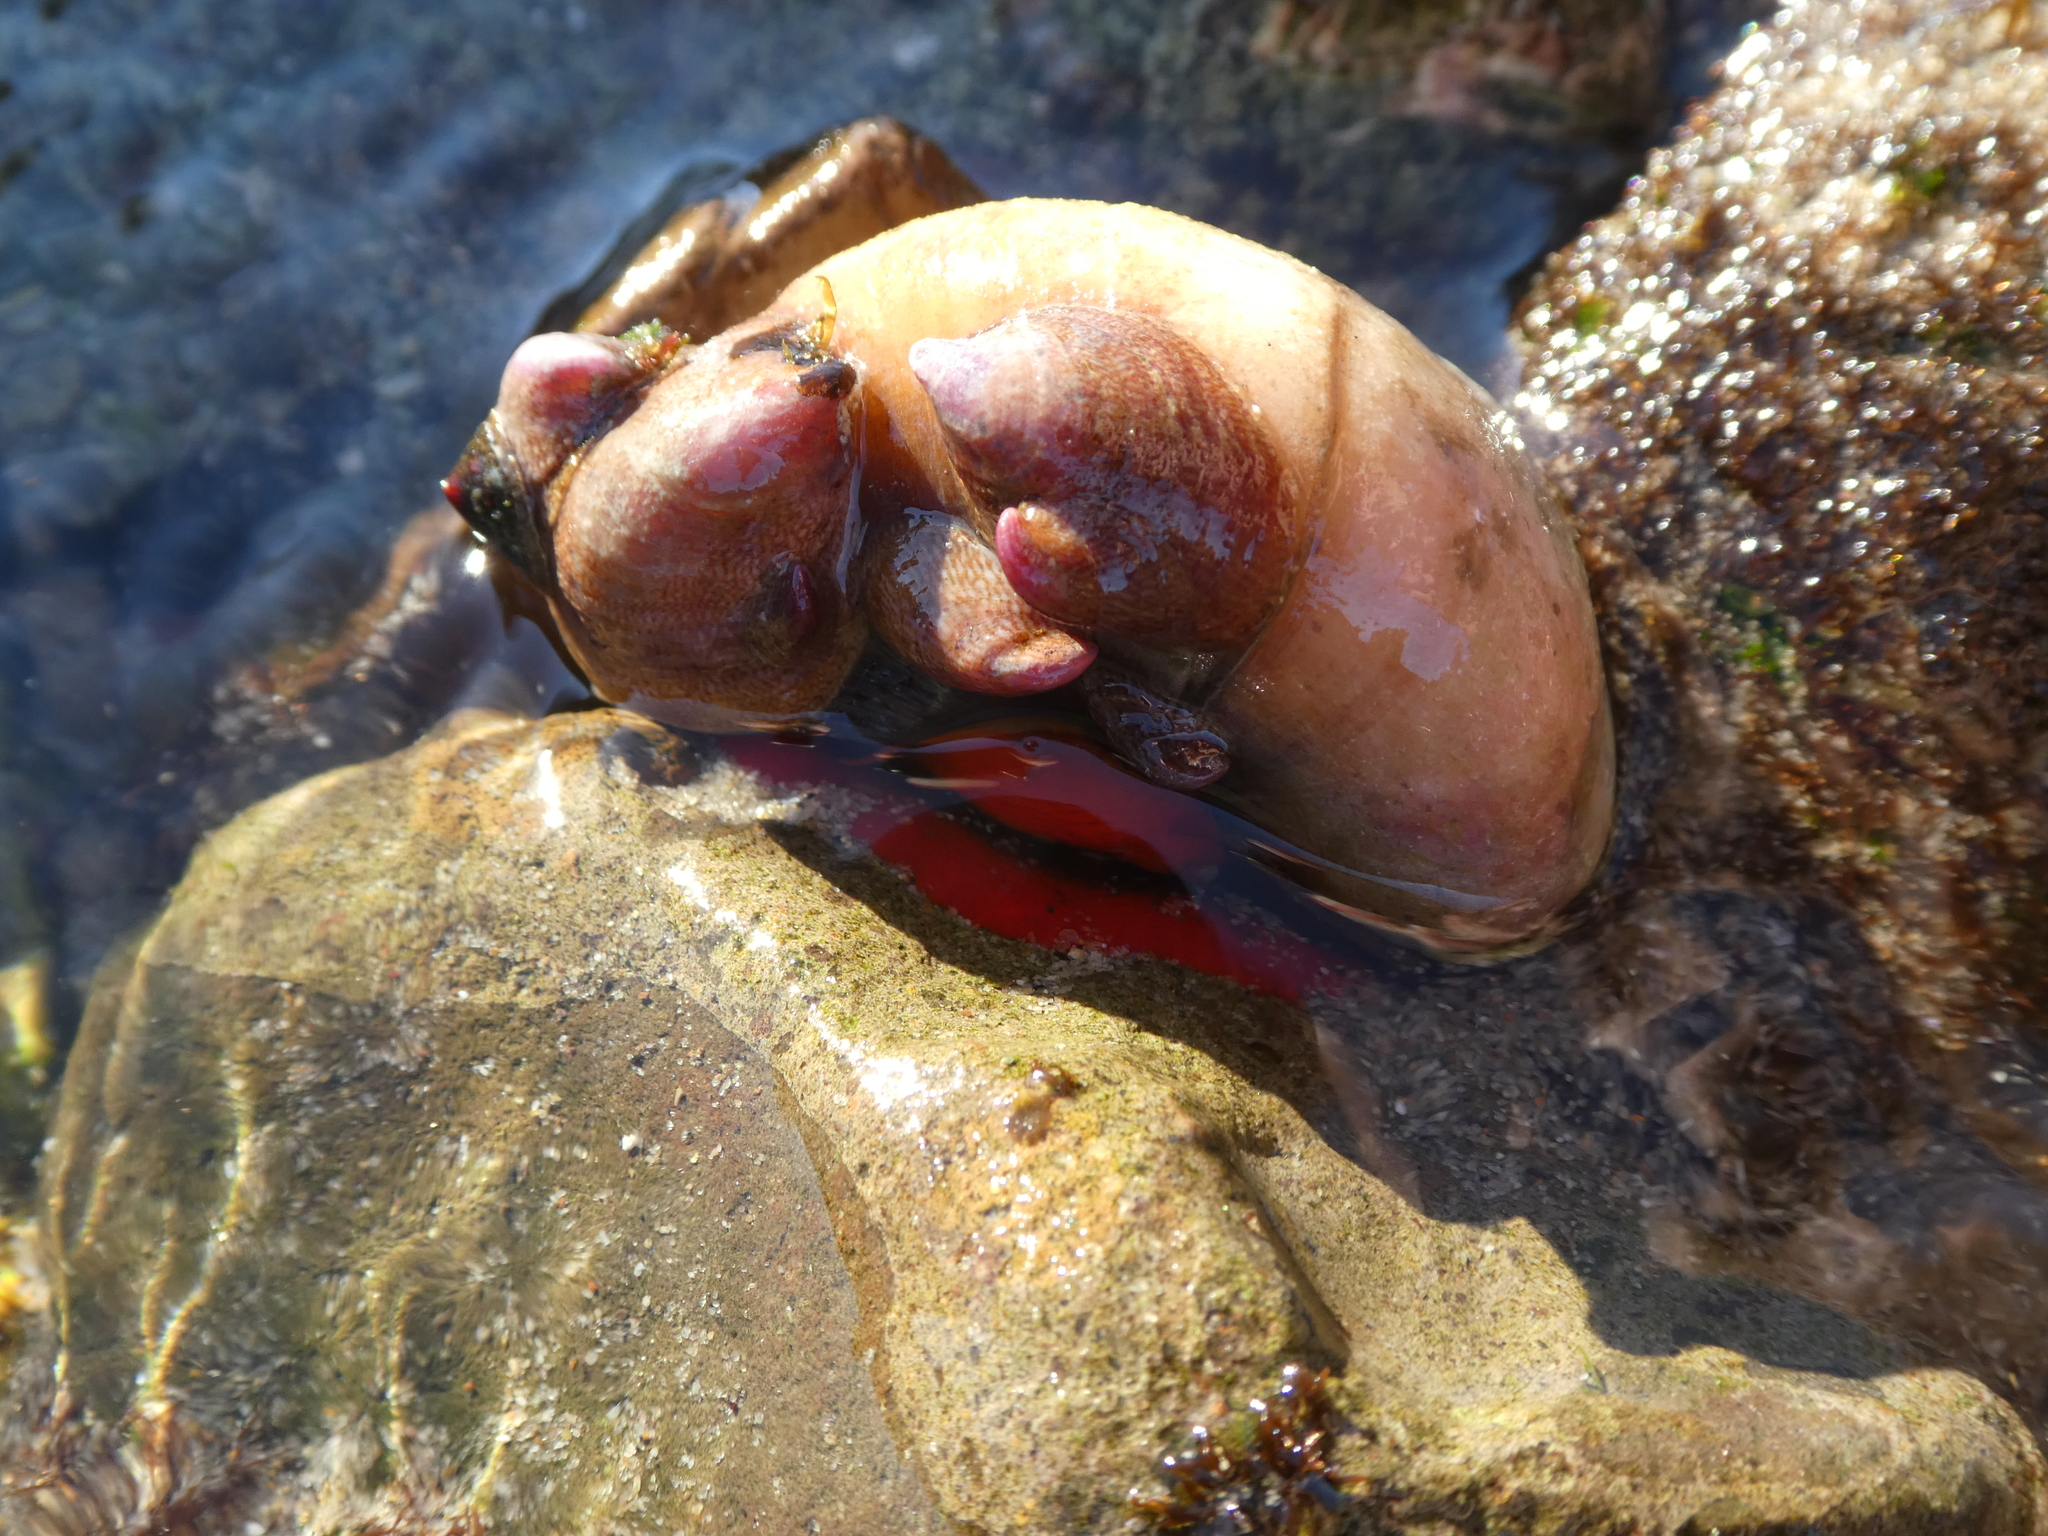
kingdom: Animalia
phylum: Mollusca
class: Gastropoda
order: Trochida
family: Tegulidae
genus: Norrisia
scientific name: Norrisia norrisii
